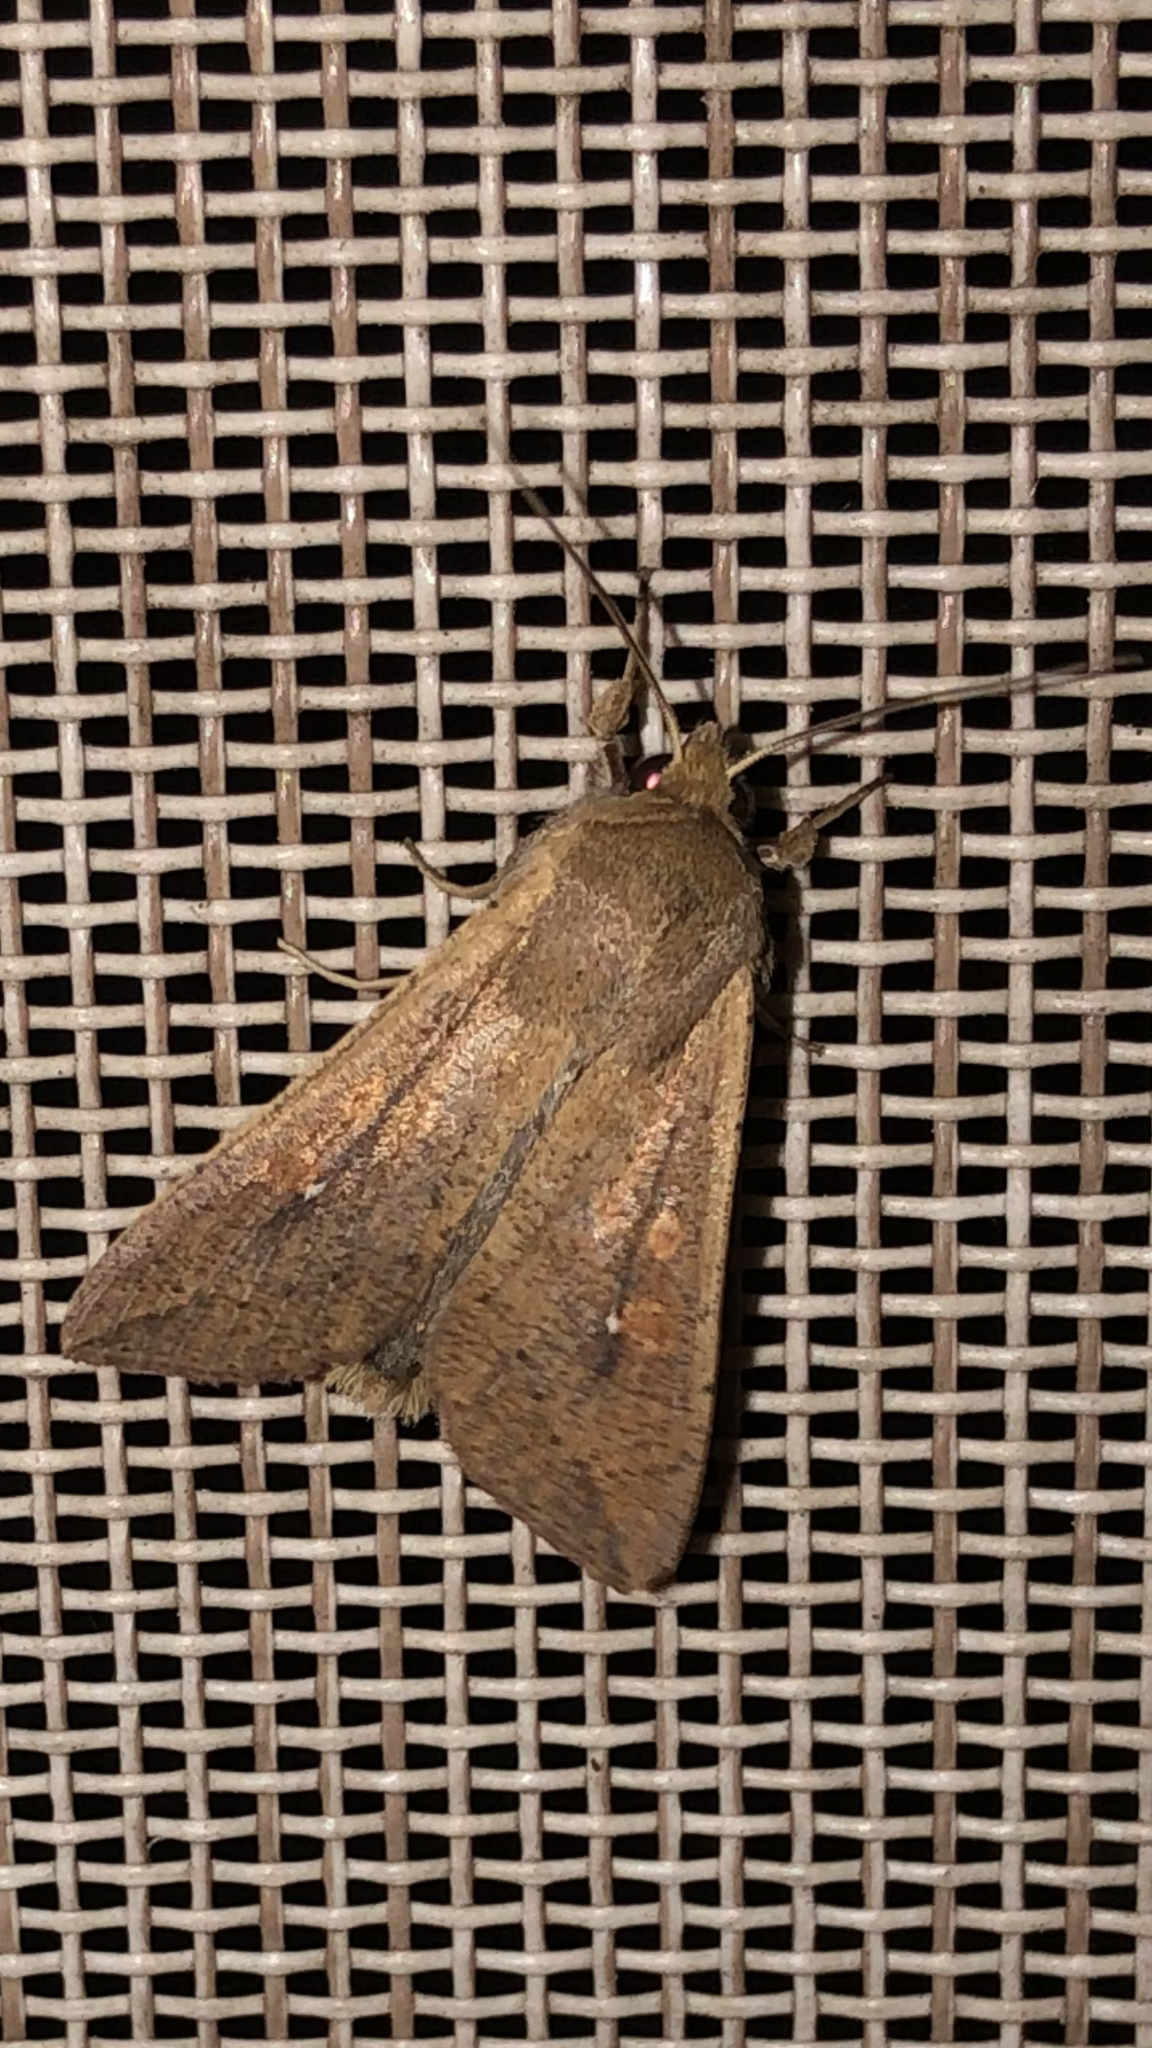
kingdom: Animalia
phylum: Arthropoda
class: Insecta
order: Lepidoptera
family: Noctuidae
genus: Mythimna
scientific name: Mythimna unipuncta
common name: White-speck
